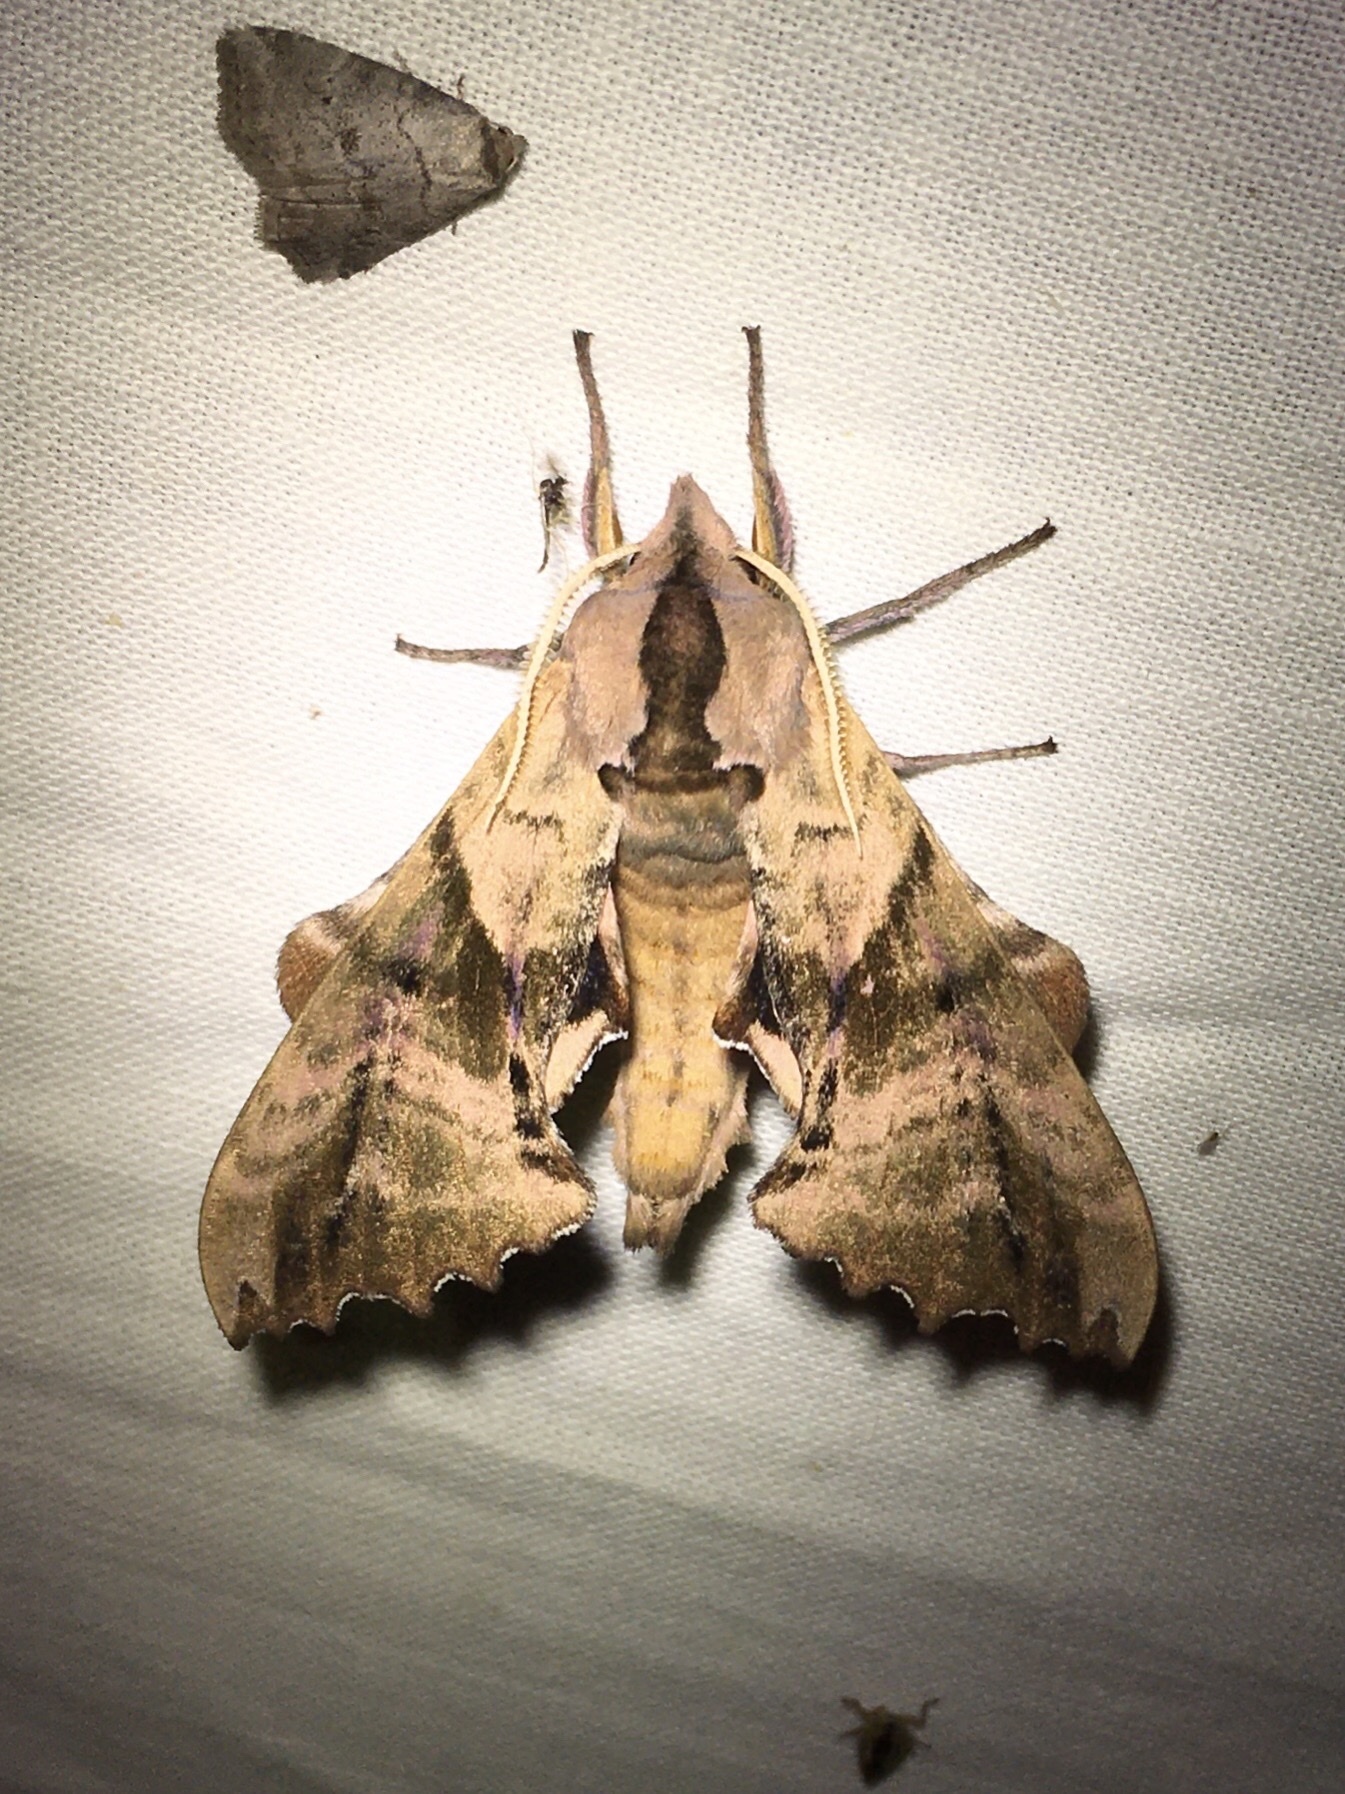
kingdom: Animalia
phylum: Arthropoda
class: Insecta
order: Lepidoptera
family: Sphingidae
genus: Paonias
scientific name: Paonias excaecata
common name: Blind-eyed sphinx
